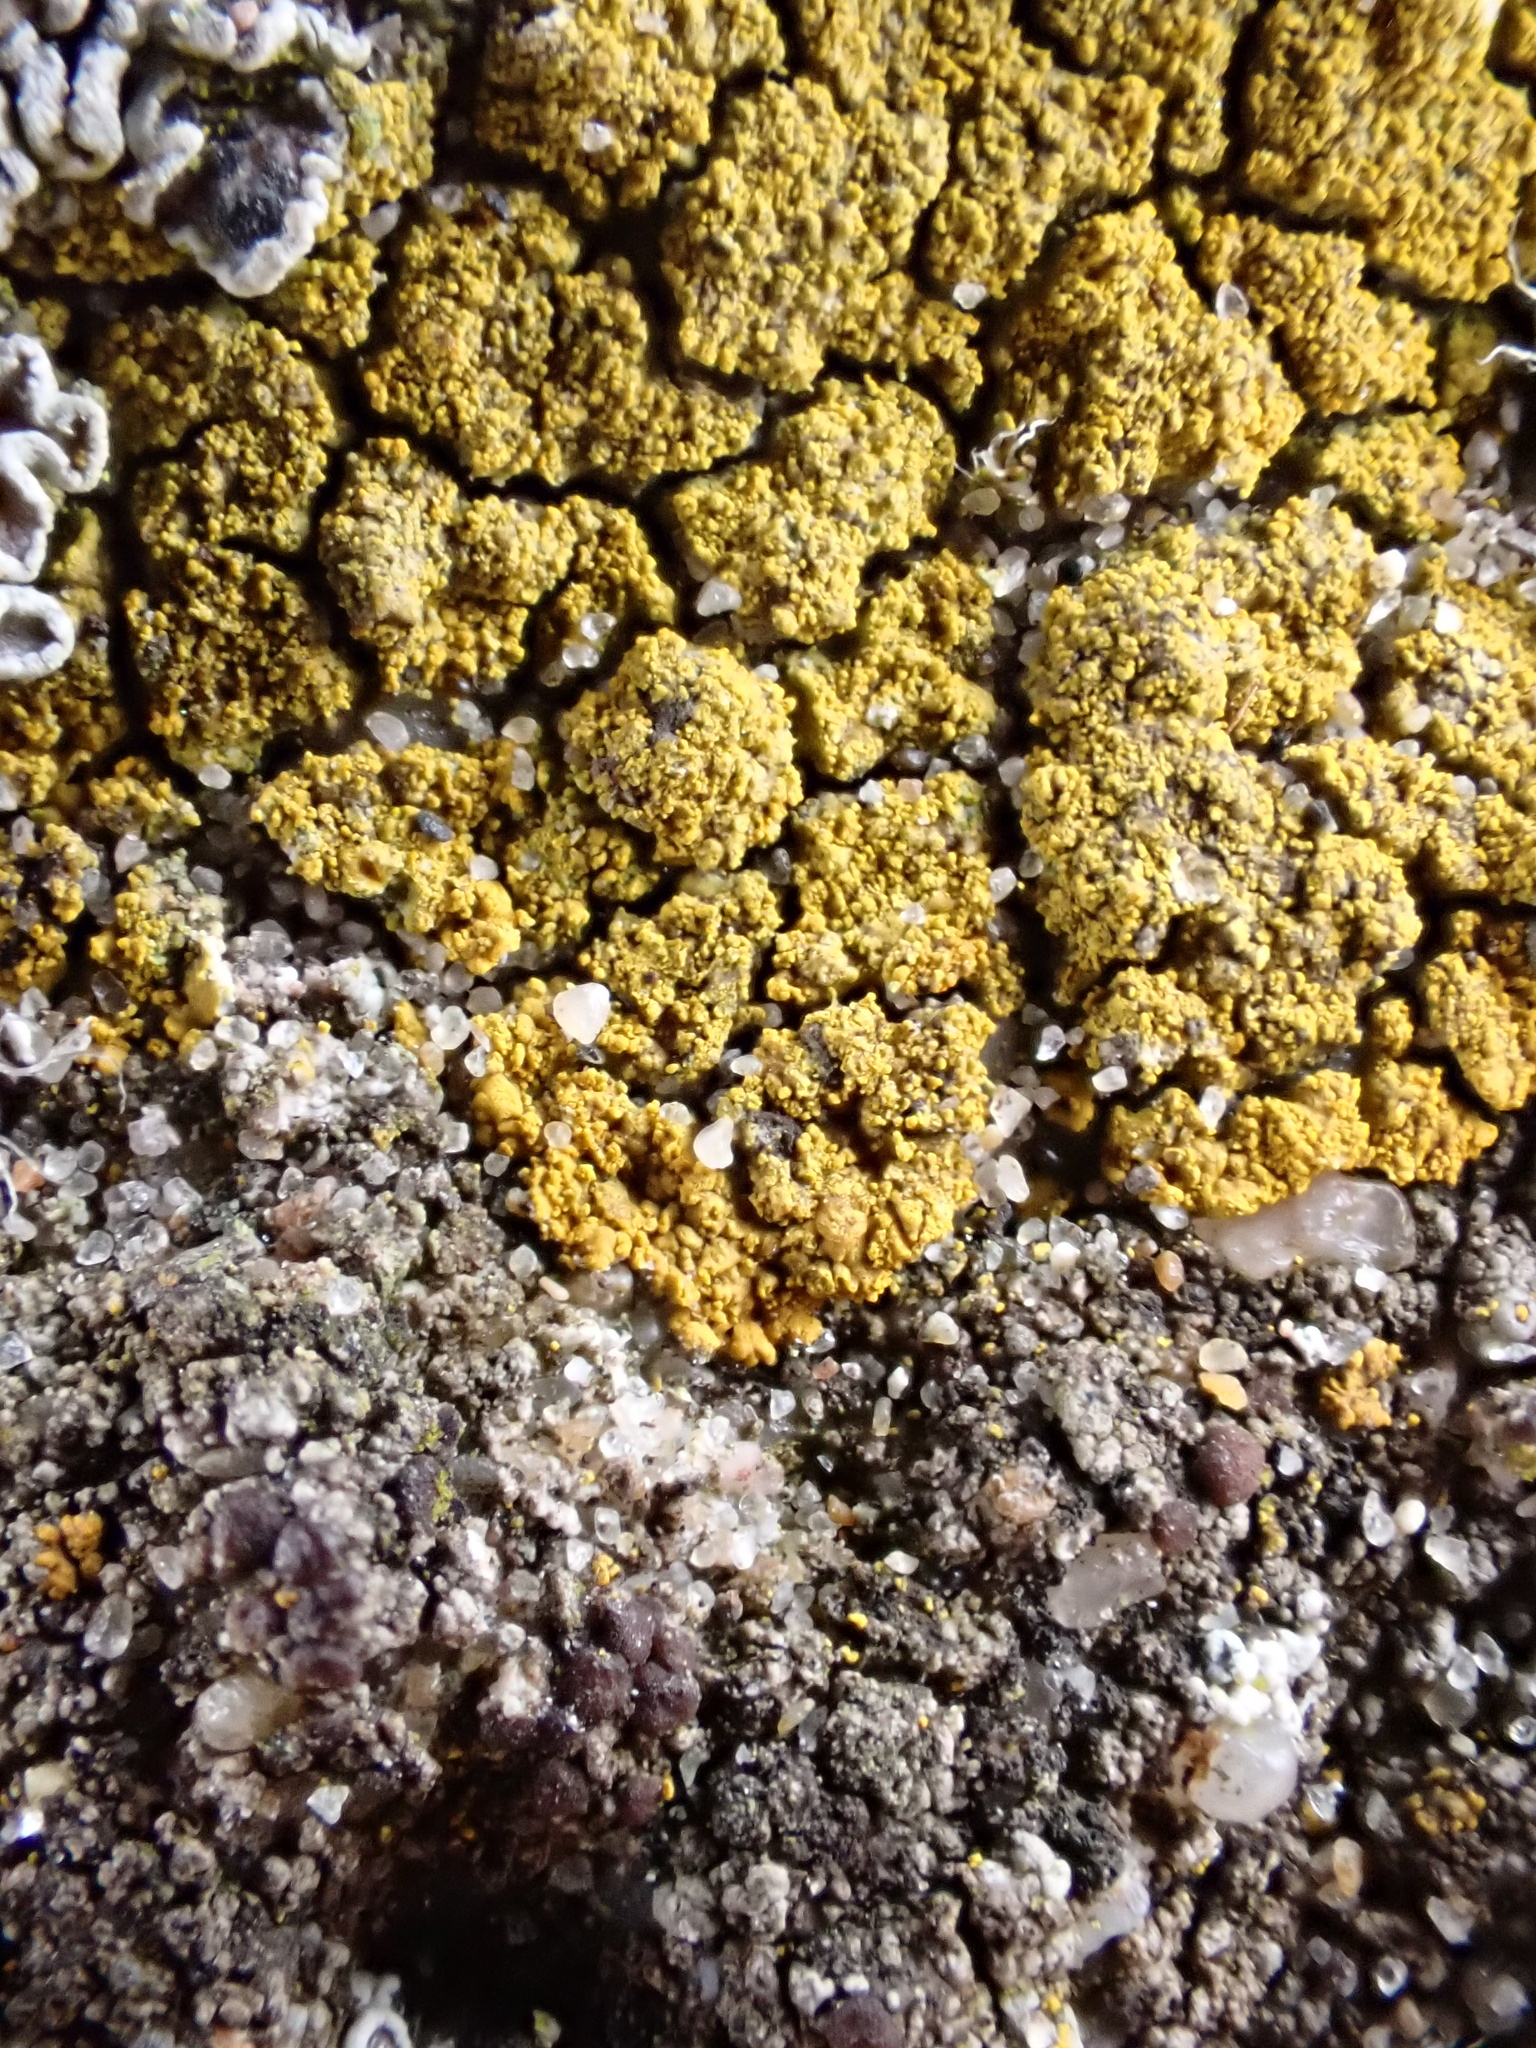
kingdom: Fungi
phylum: Ascomycota
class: Lecanoromycetes
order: Teloschistales
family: Teloschistaceae
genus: Flavoplaca
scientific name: Flavoplaca arcis
